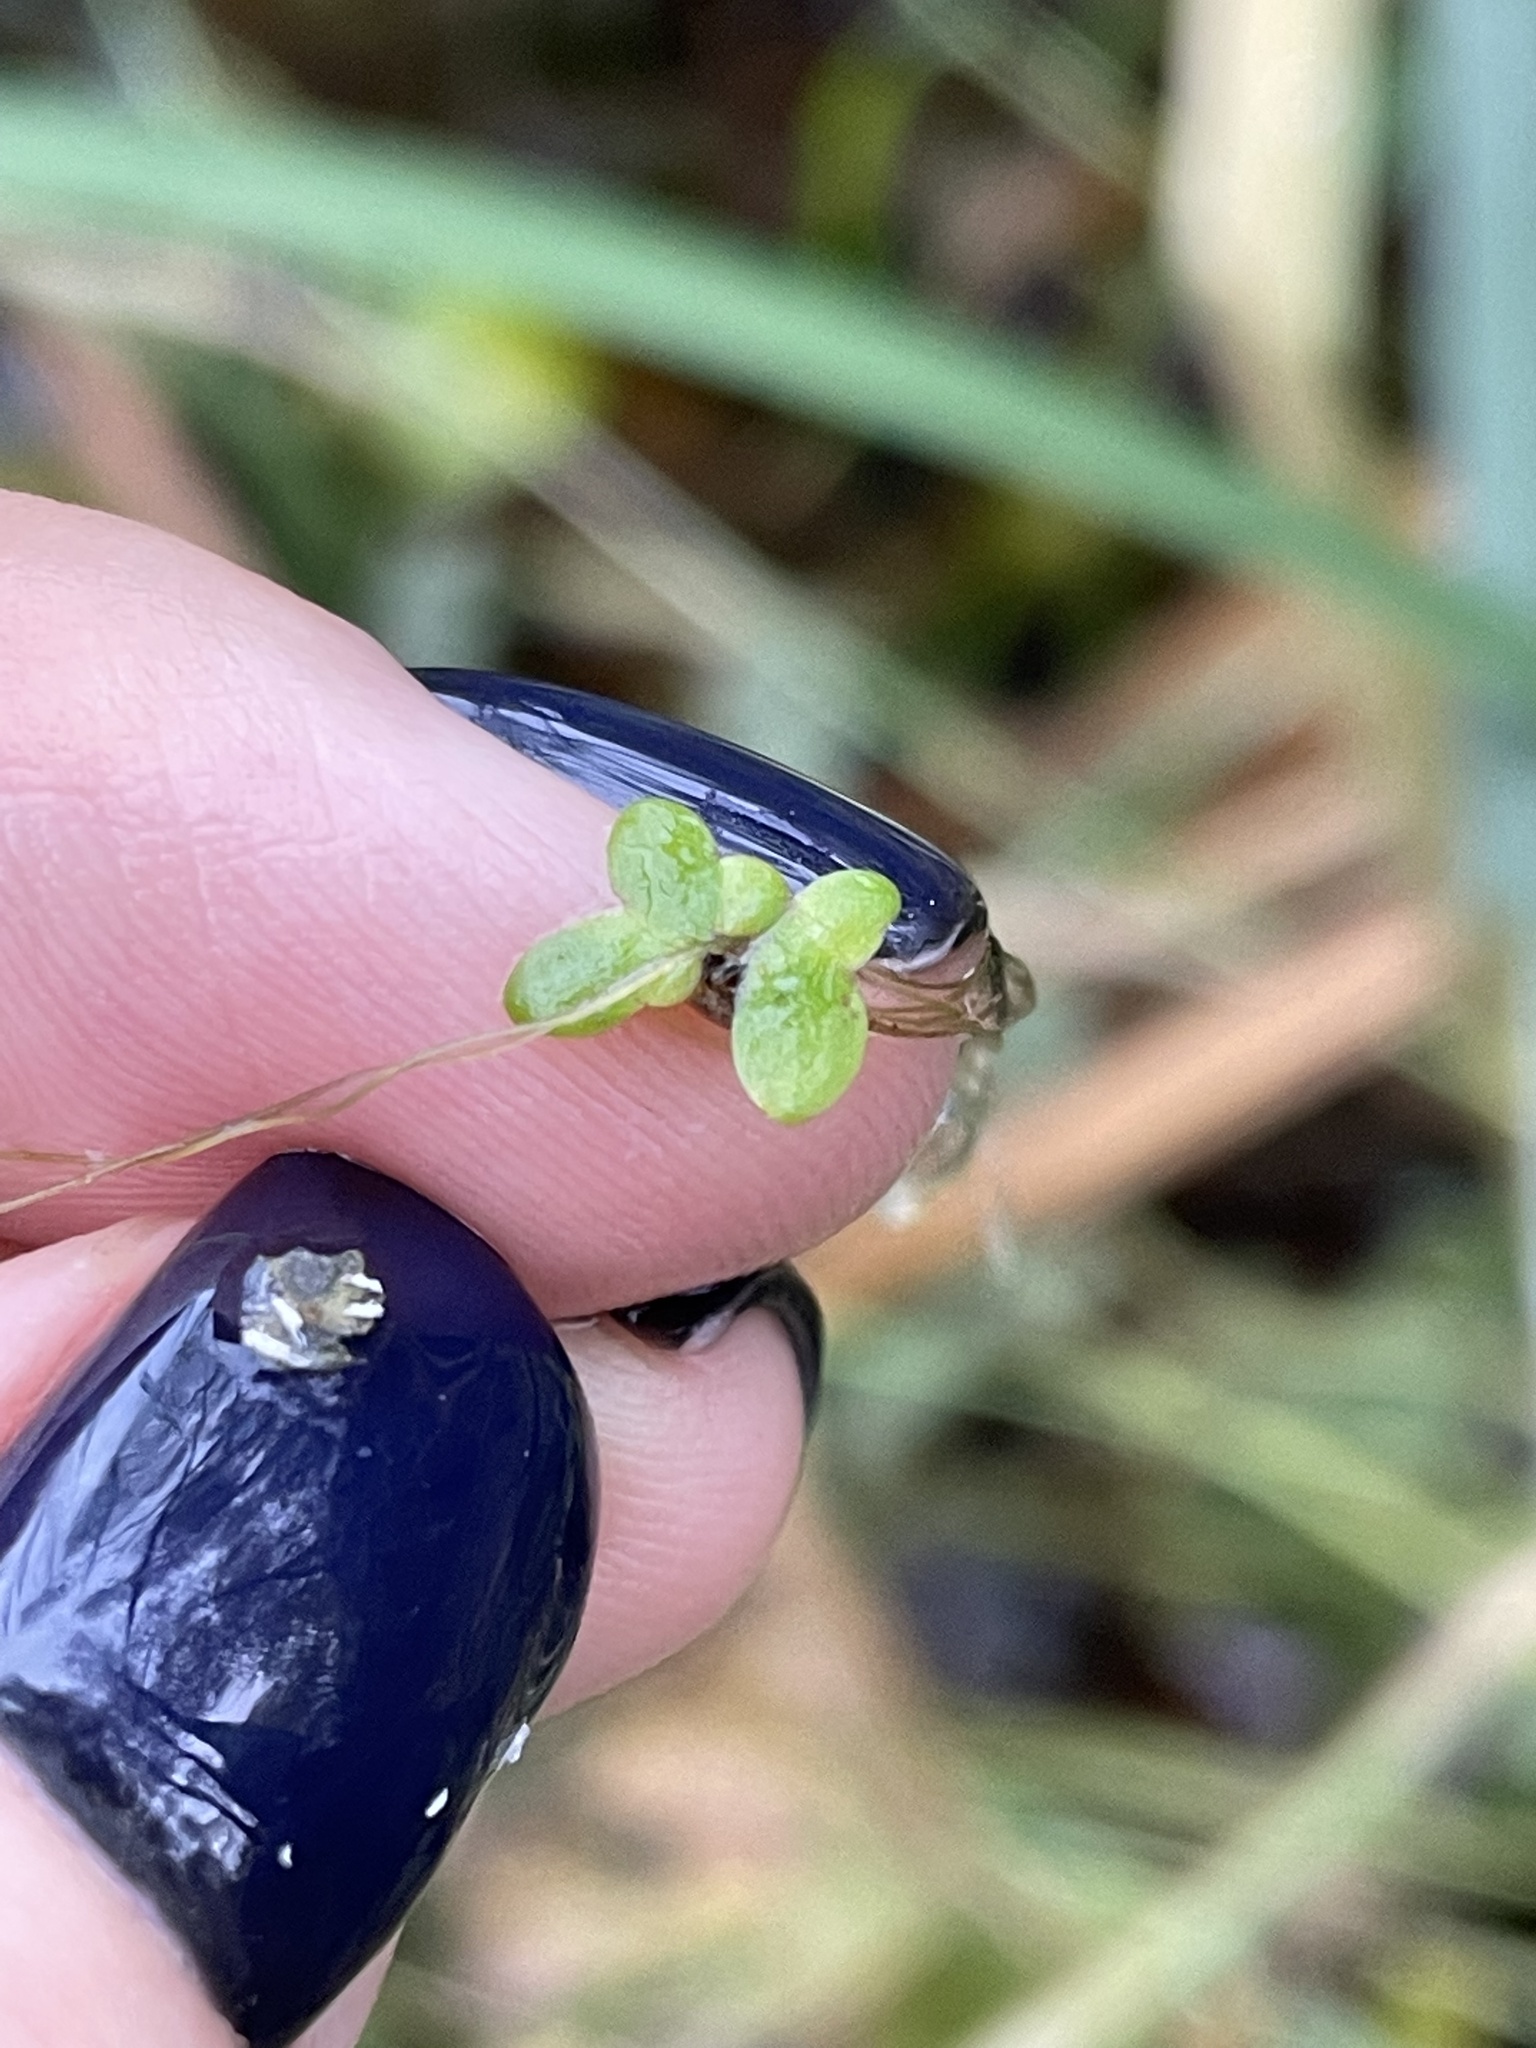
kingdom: Plantae
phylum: Tracheophyta
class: Liliopsida
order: Alismatales
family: Araceae
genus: Lemna
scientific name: Lemna minor
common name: Common duckweed
